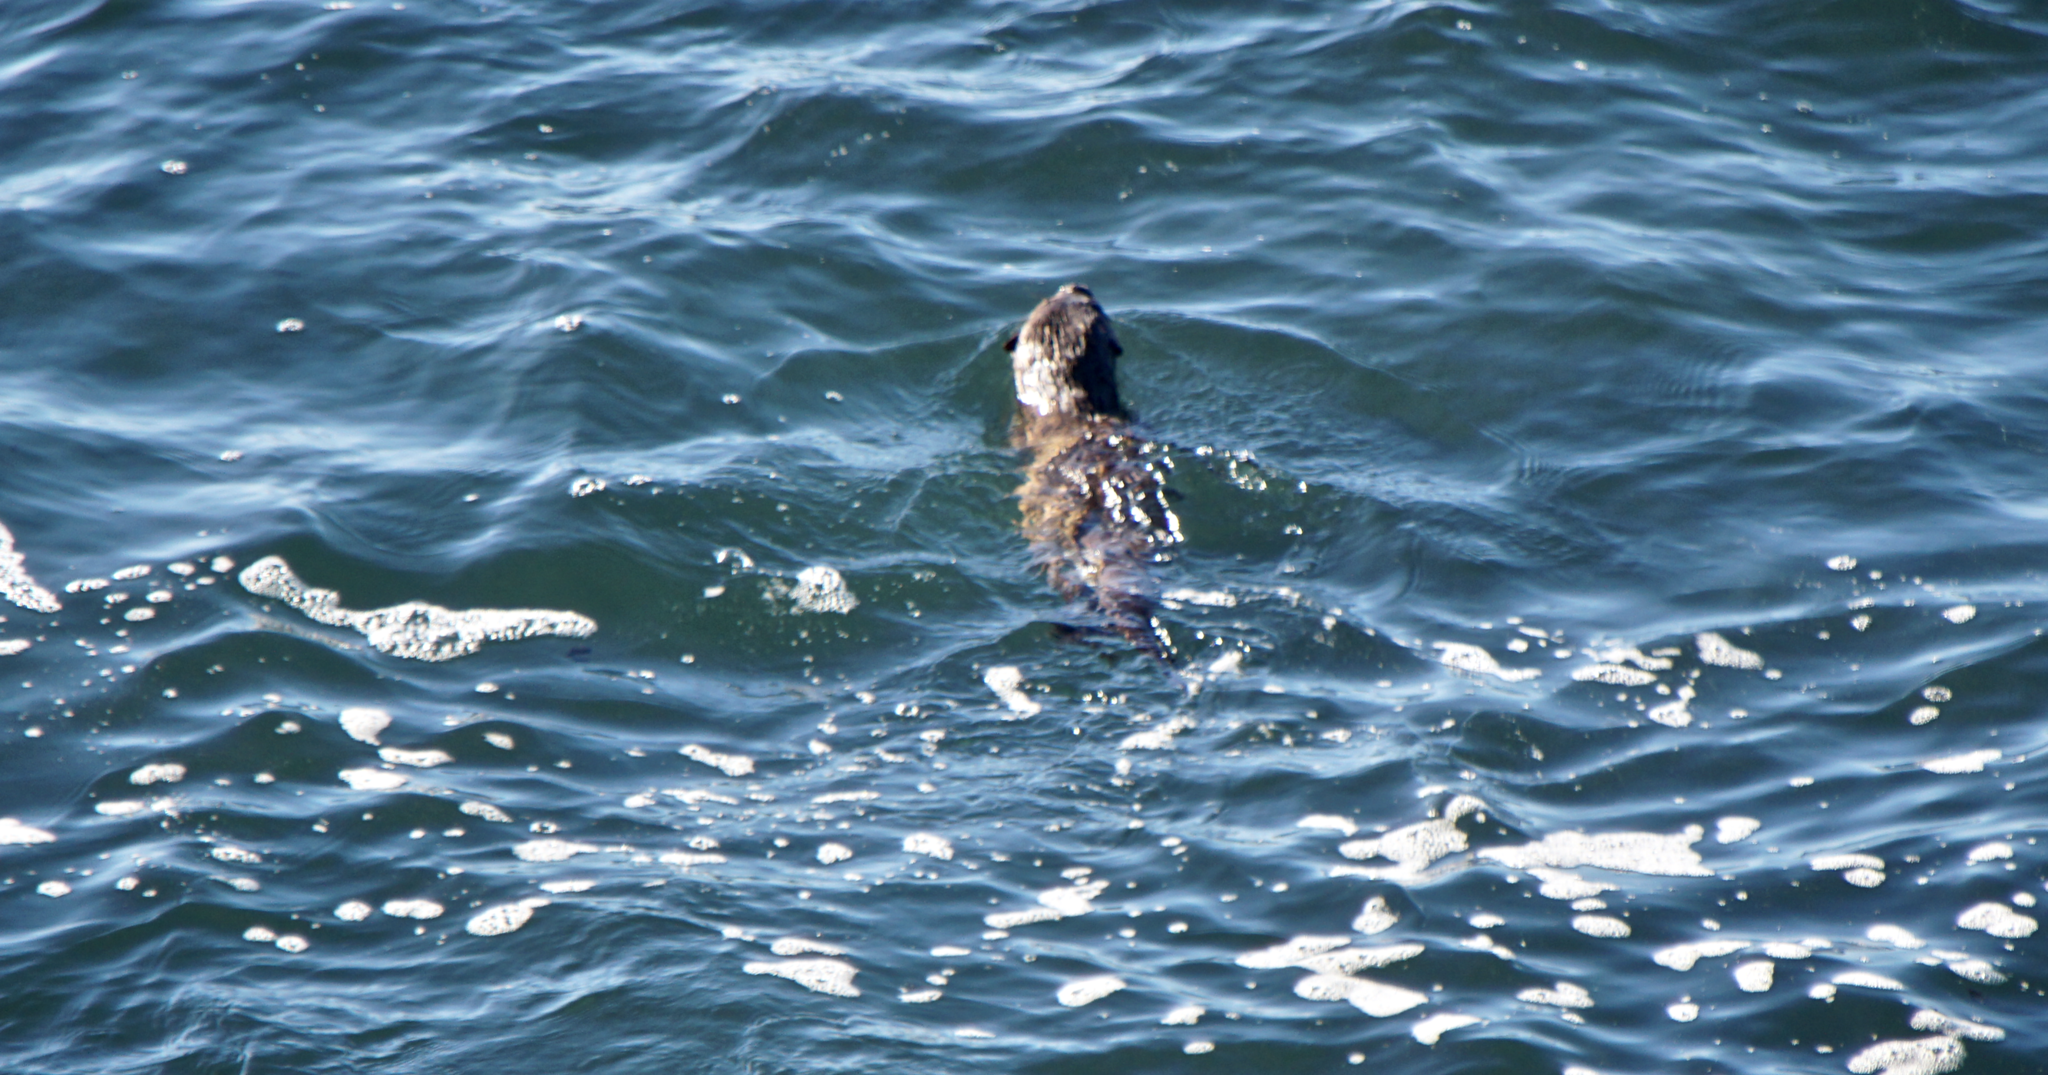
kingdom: Animalia
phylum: Chordata
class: Mammalia
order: Carnivora
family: Mustelidae
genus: Lontra
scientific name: Lontra canadensis
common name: North american river otter
